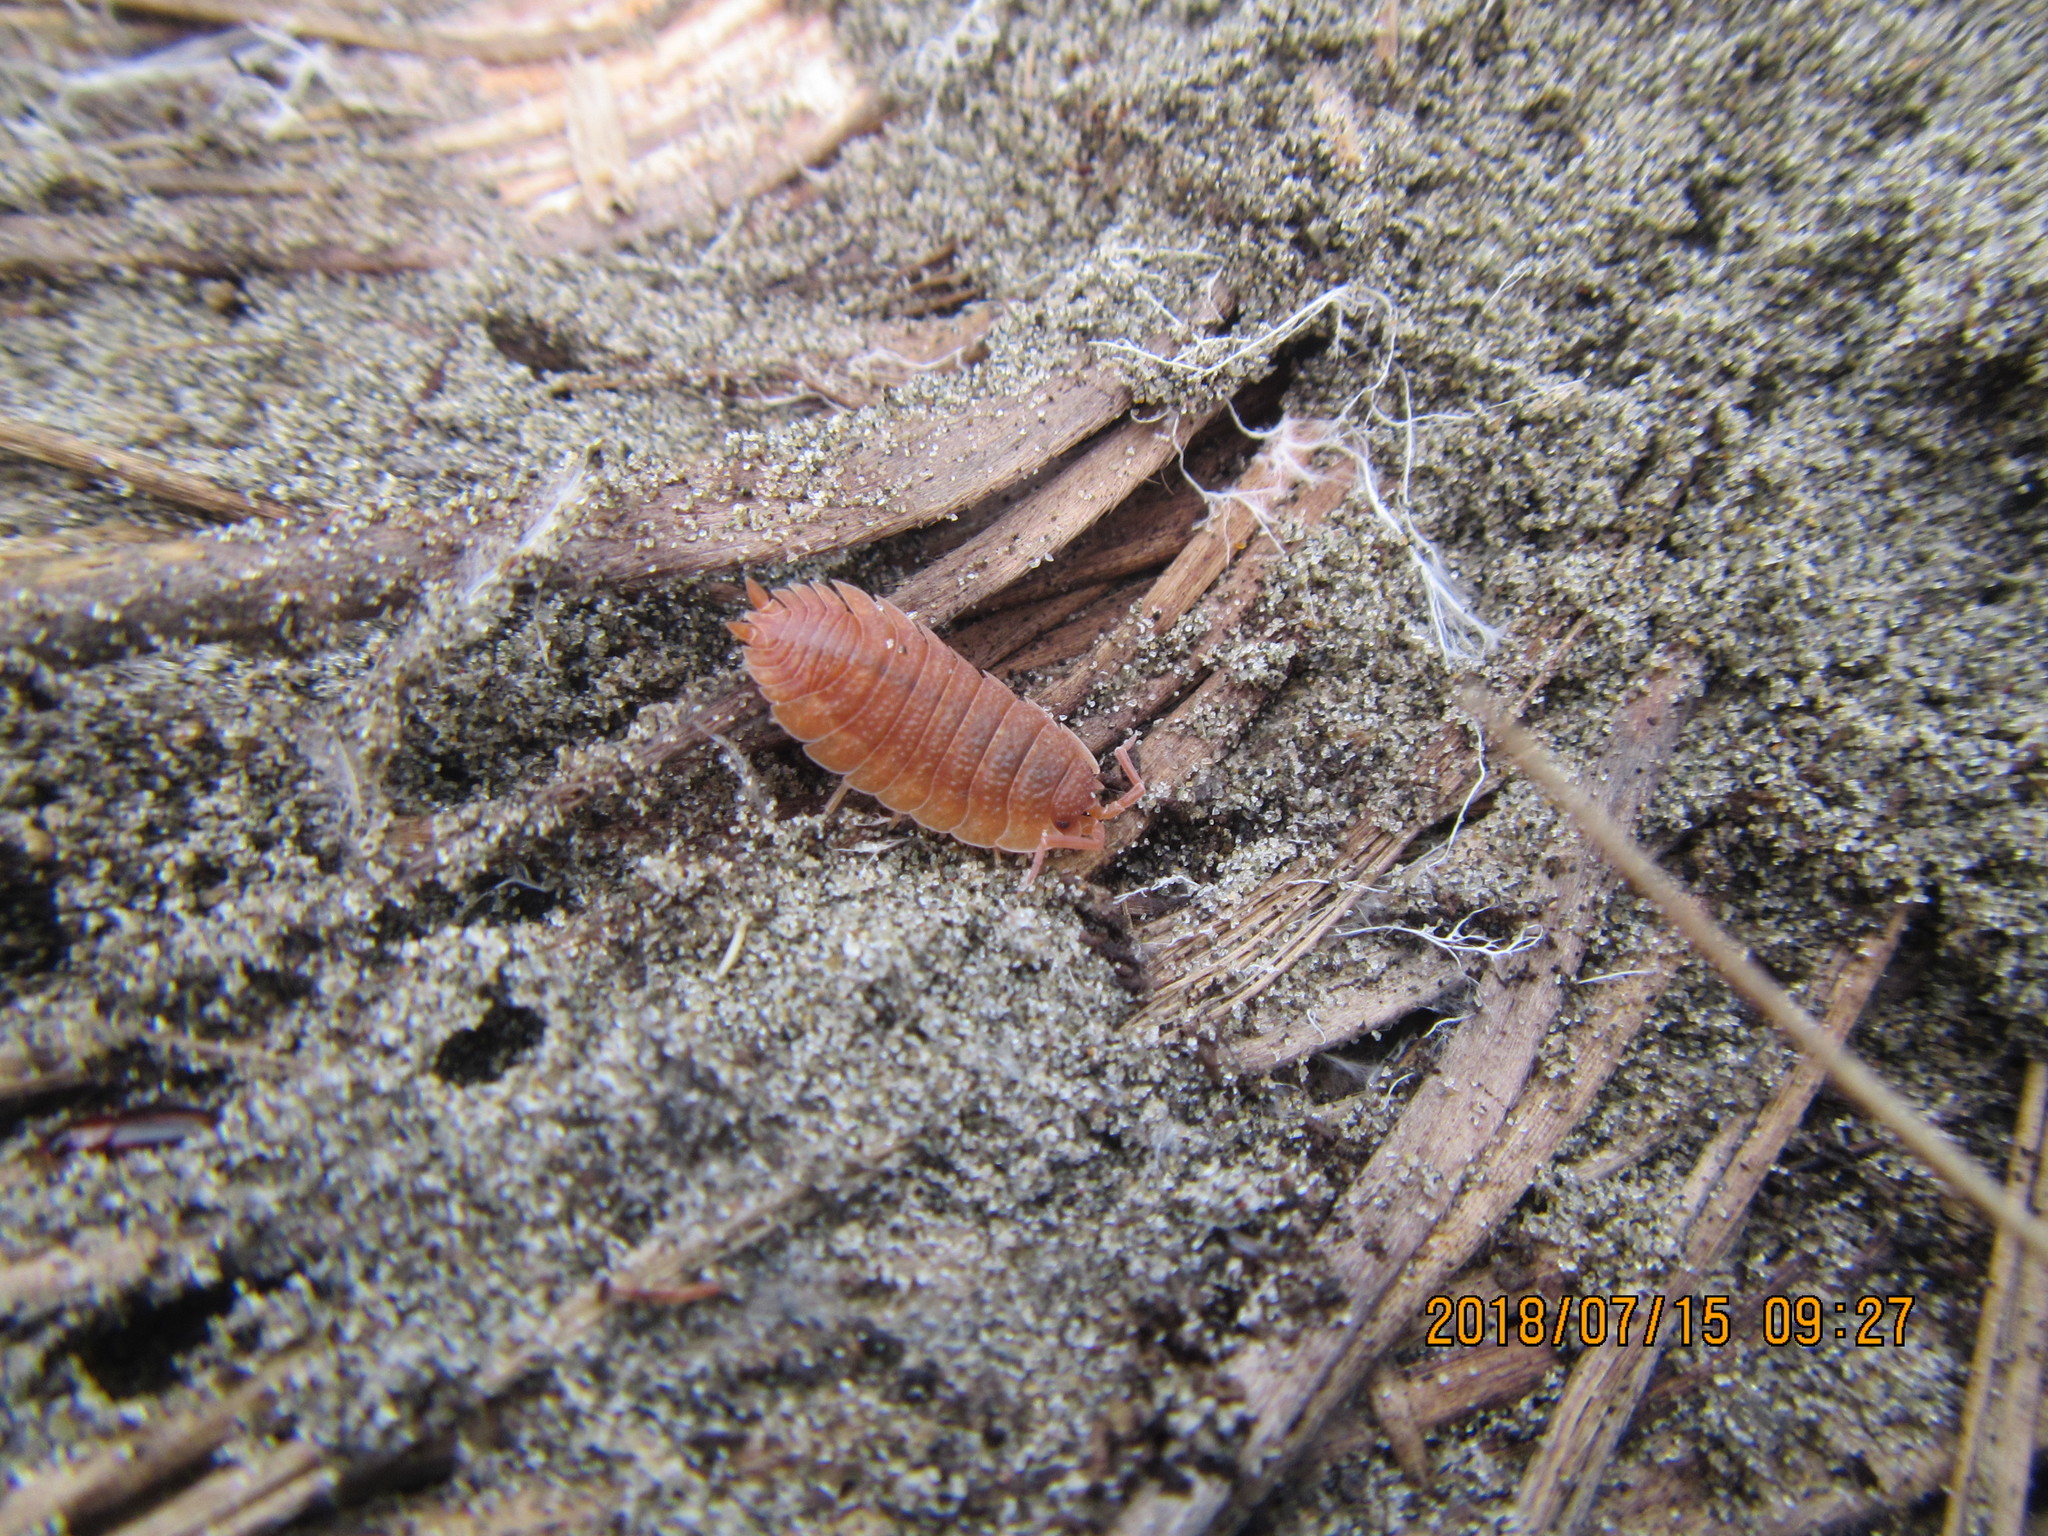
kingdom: Animalia
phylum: Arthropoda
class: Malacostraca
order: Isopoda
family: Porcellionidae
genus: Porcellio
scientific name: Porcellio scaber
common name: Common rough woodlouse
